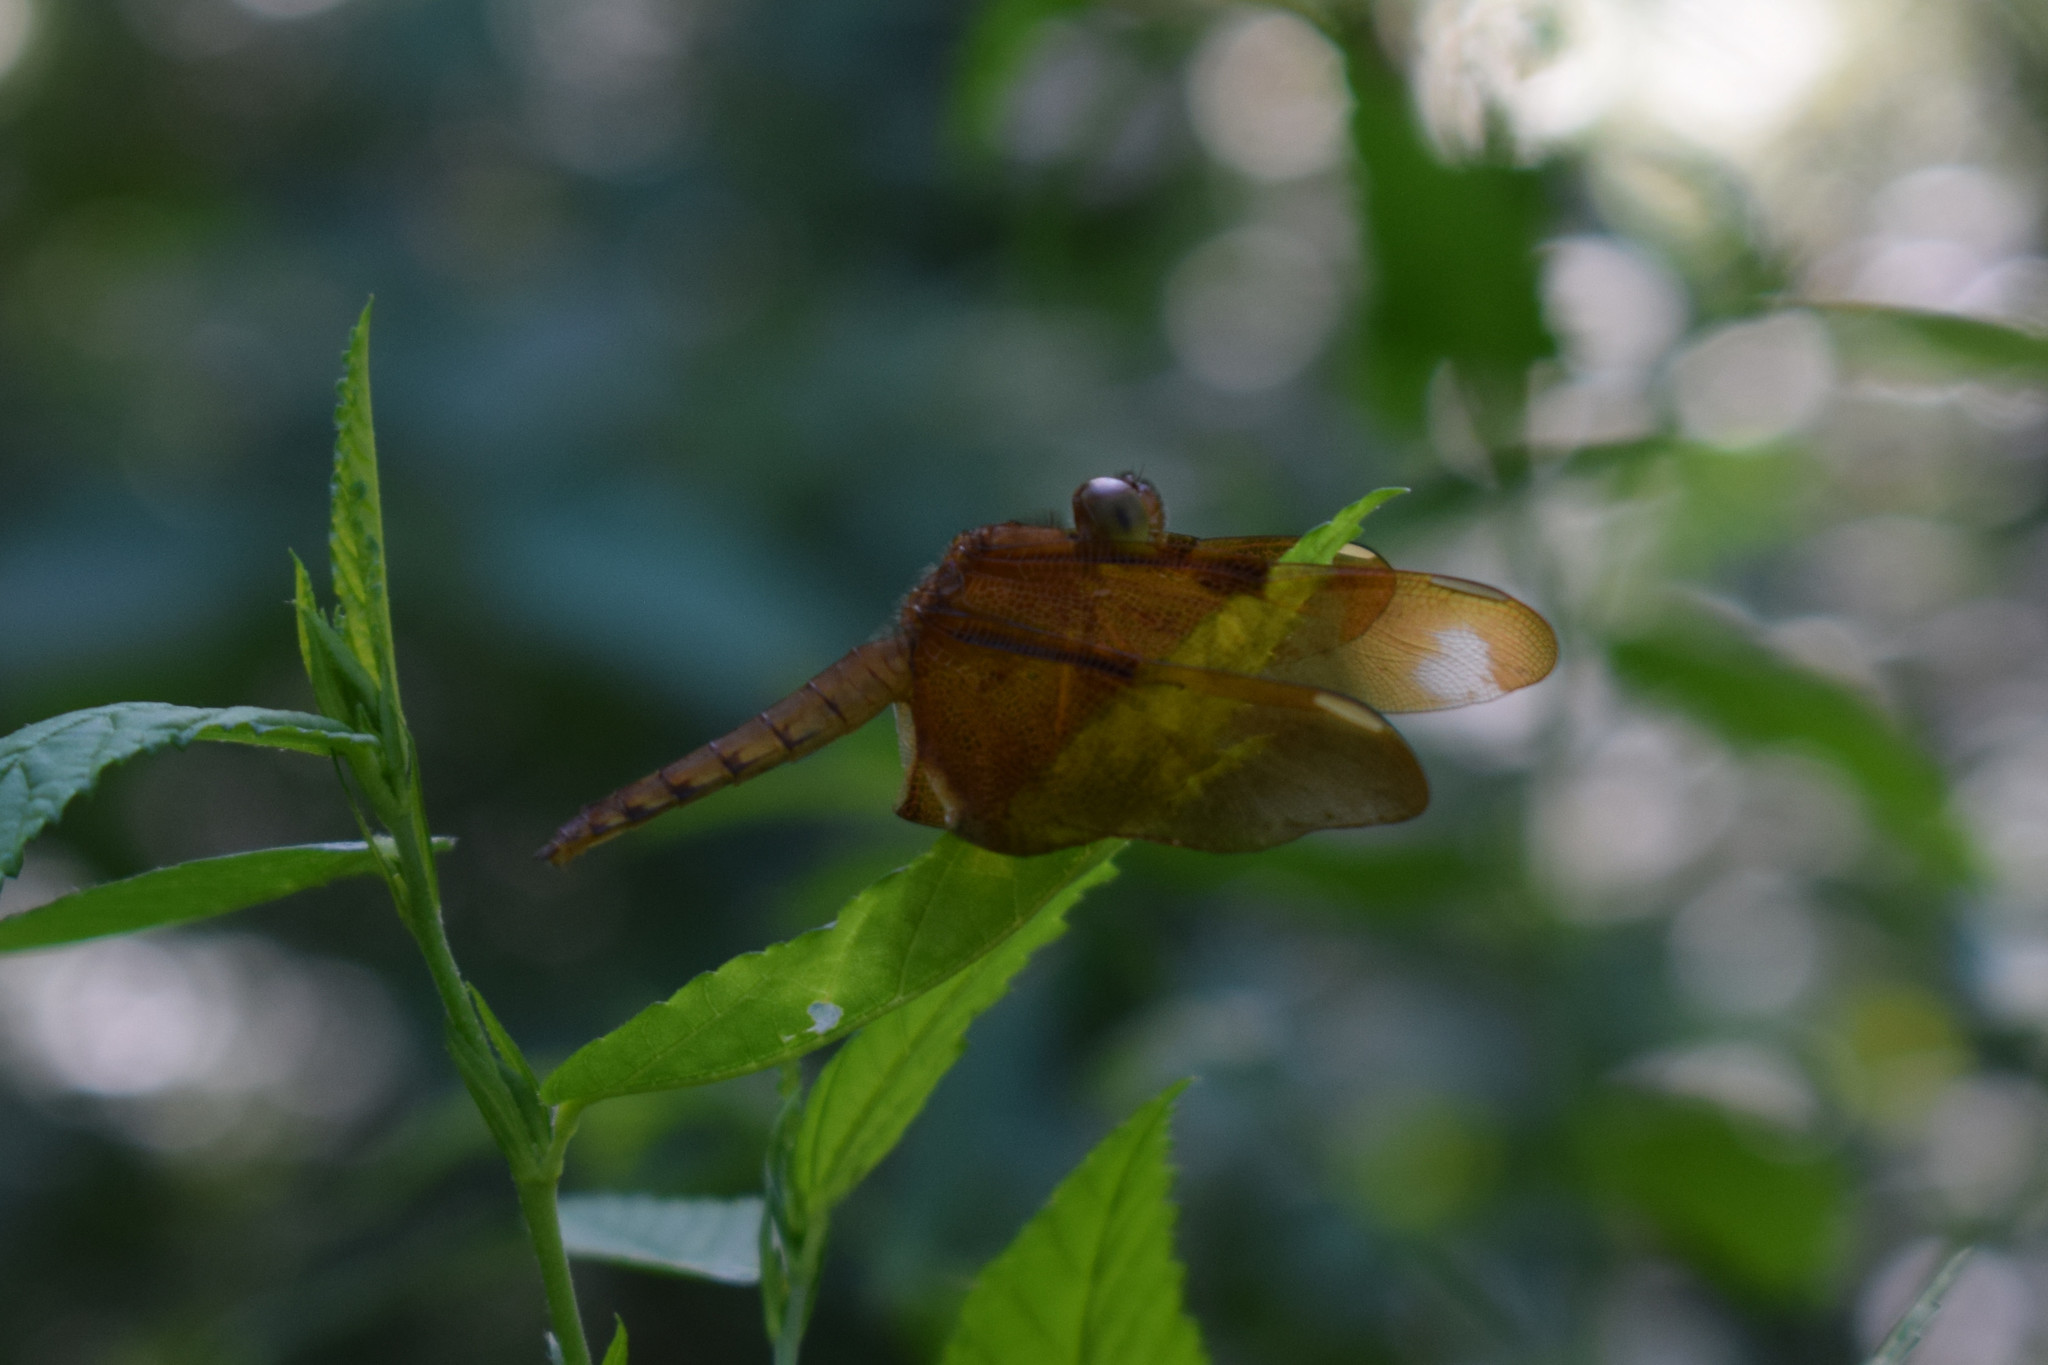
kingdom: Animalia
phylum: Arthropoda
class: Insecta
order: Odonata
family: Libellulidae
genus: Neurothemis
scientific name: Neurothemis fulvia
